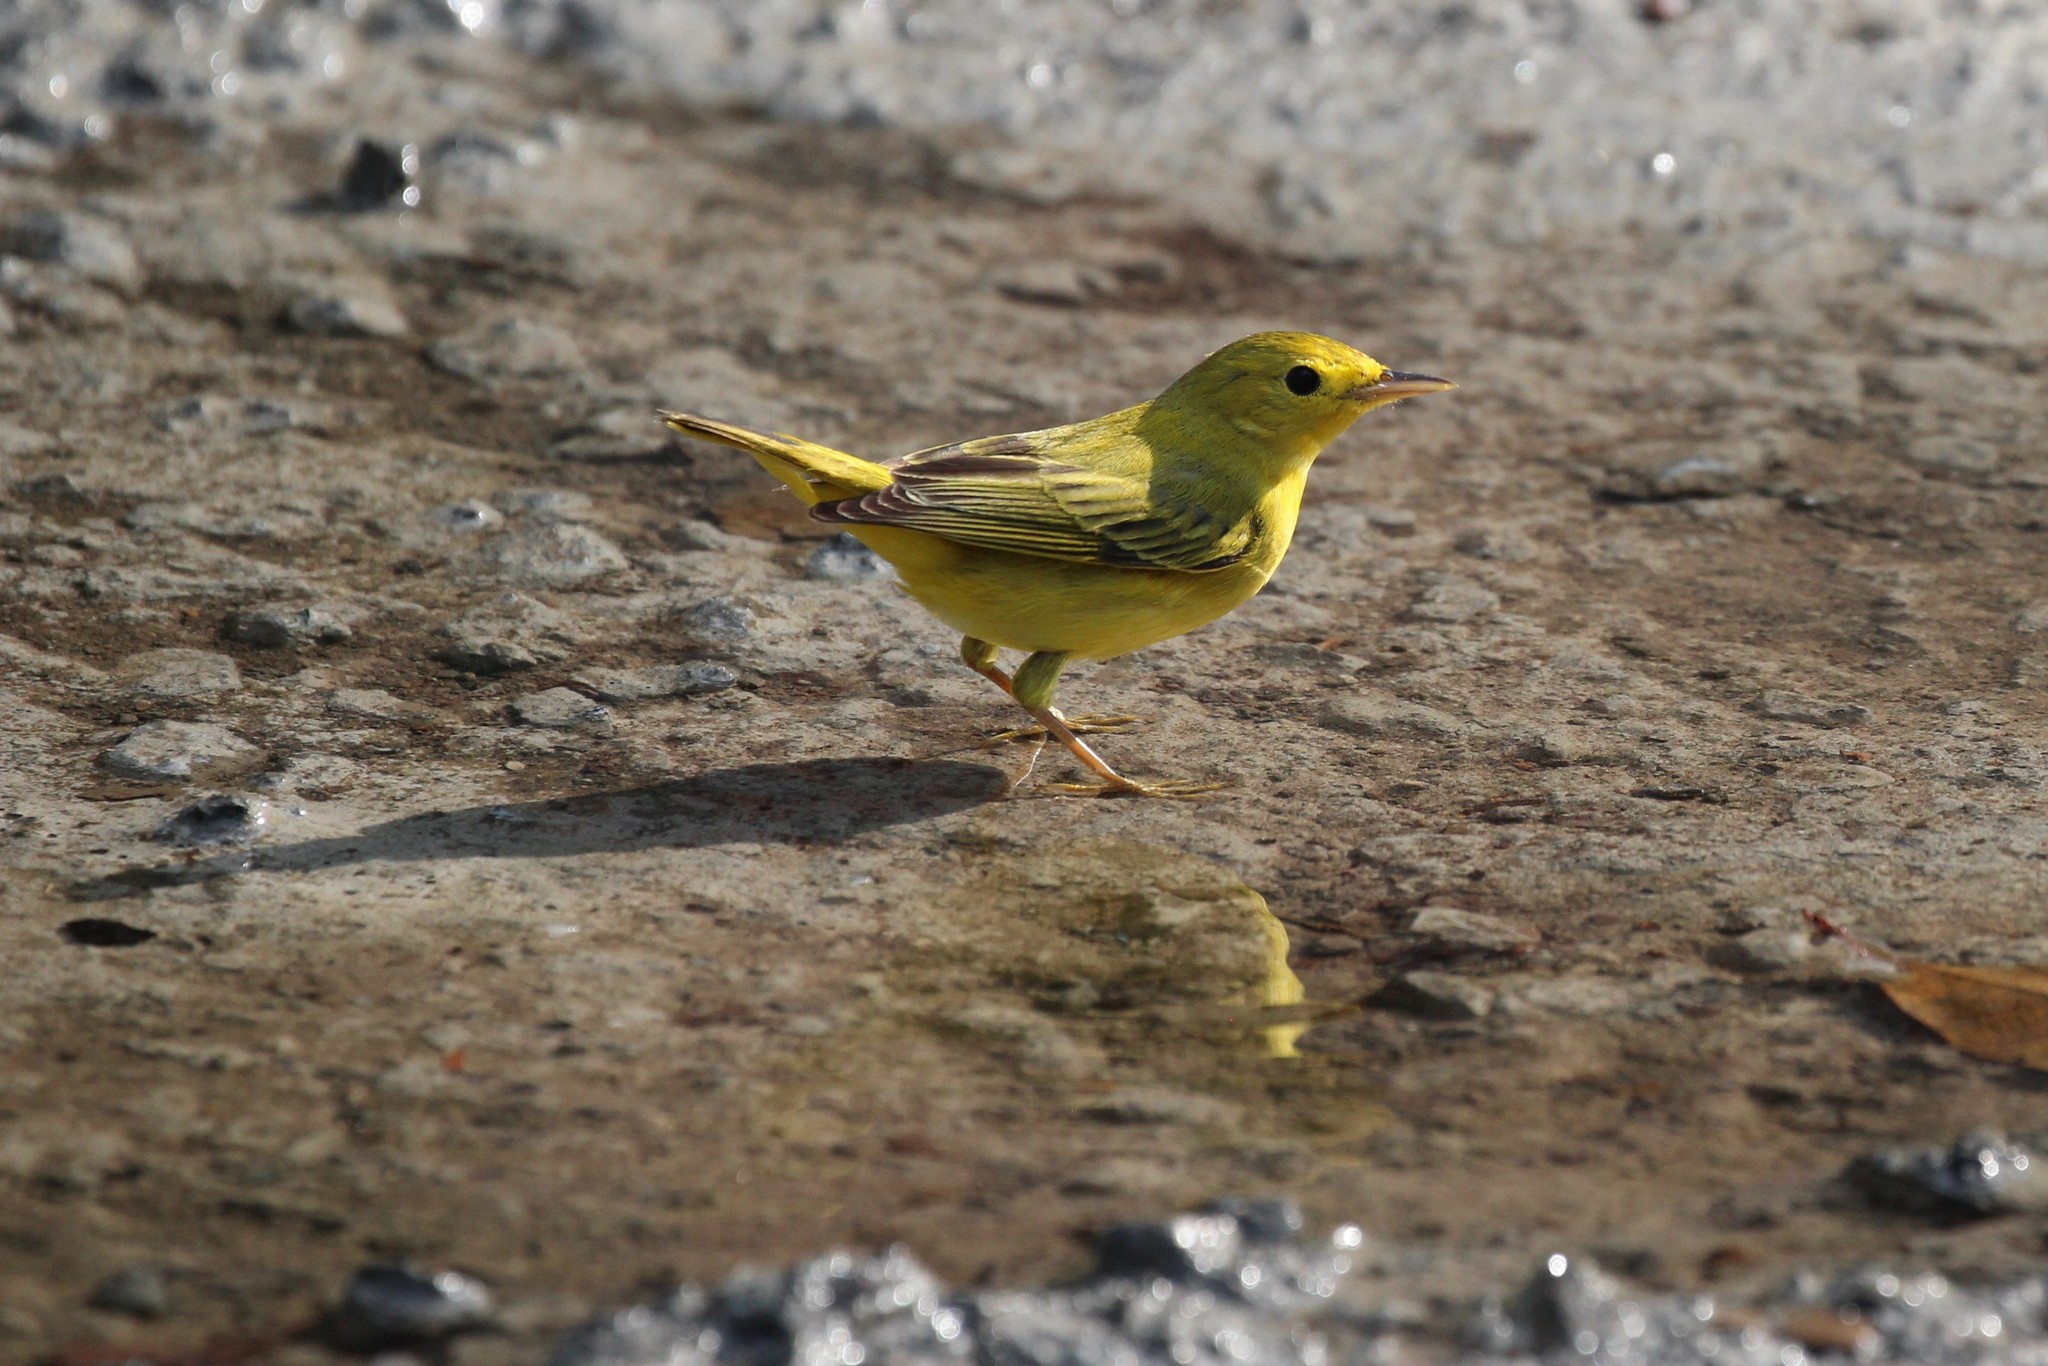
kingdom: Animalia
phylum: Chordata
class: Aves
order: Passeriformes
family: Parulidae
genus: Setophaga
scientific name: Setophaga petechia
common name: Yellow warbler
